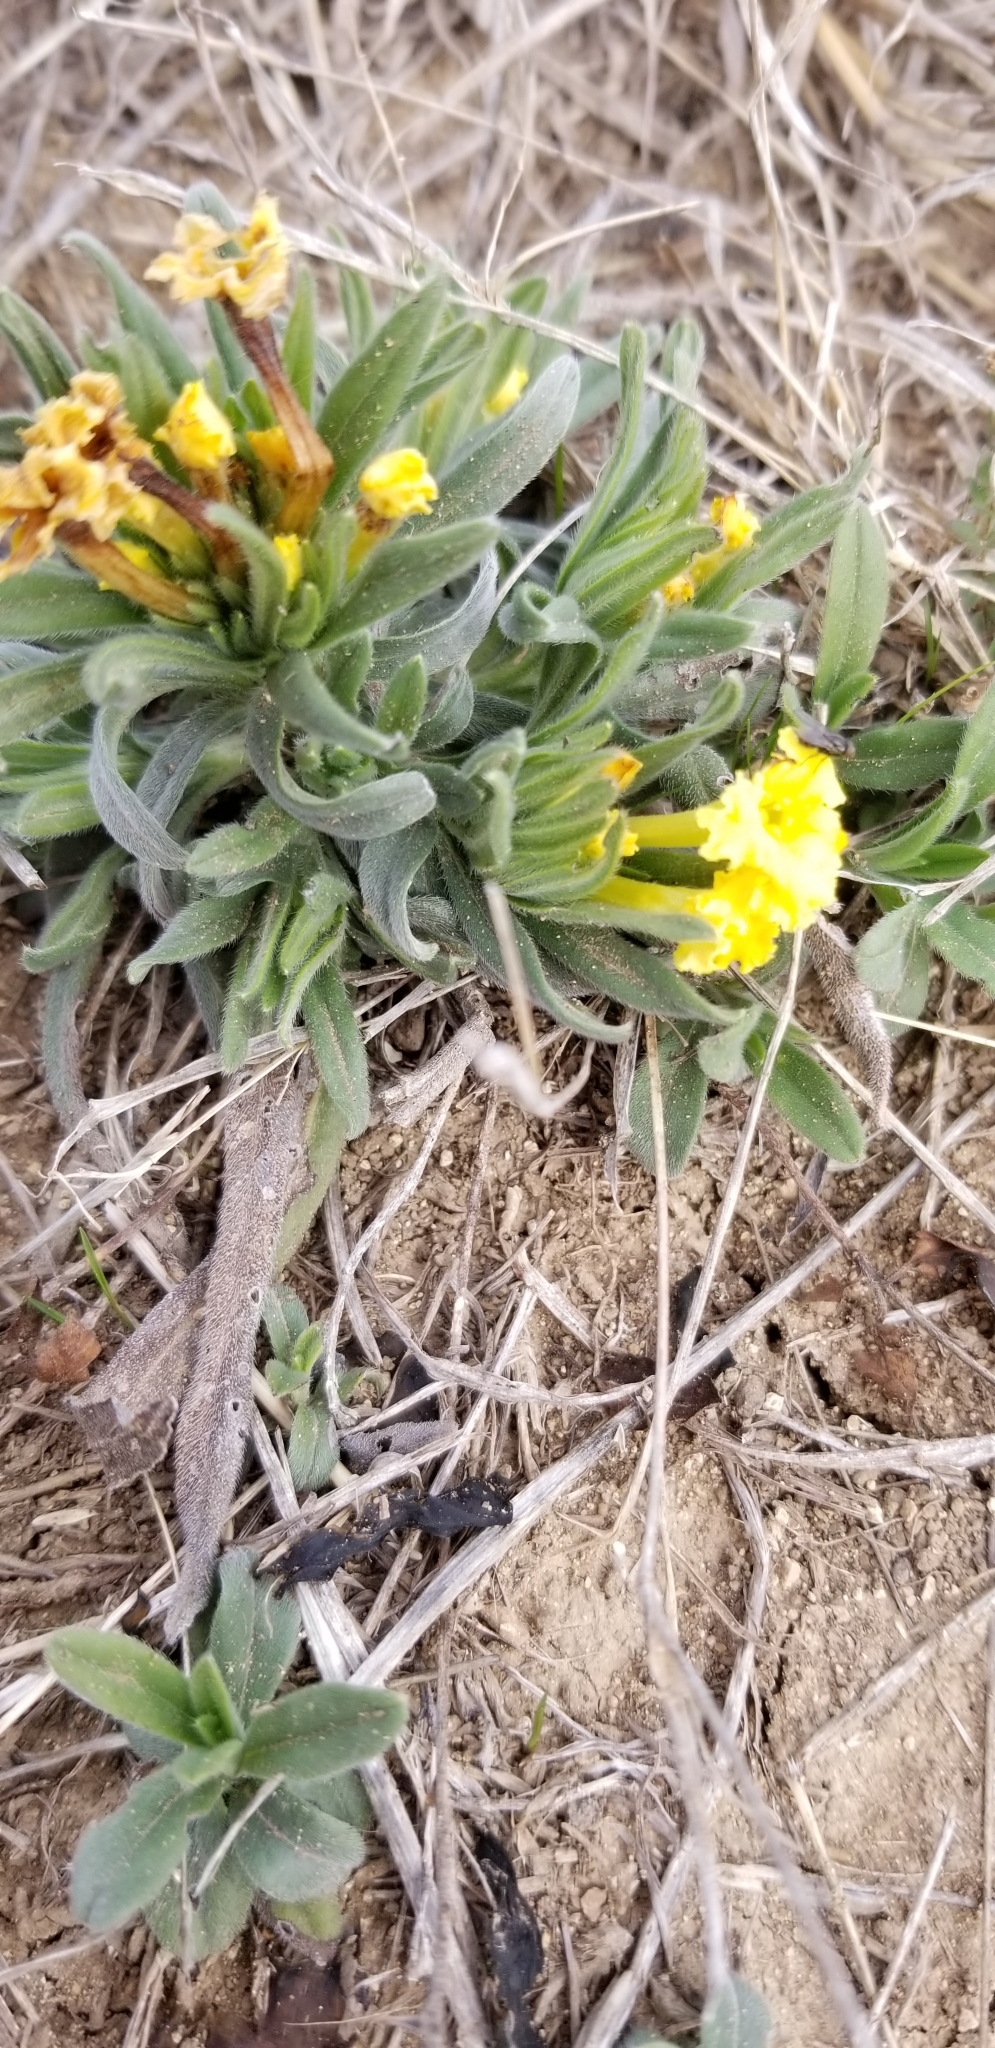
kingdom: Plantae
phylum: Tracheophyta
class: Magnoliopsida
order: Boraginales
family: Boraginaceae
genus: Lithospermum
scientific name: Lithospermum incisum
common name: Fringed gromwell
